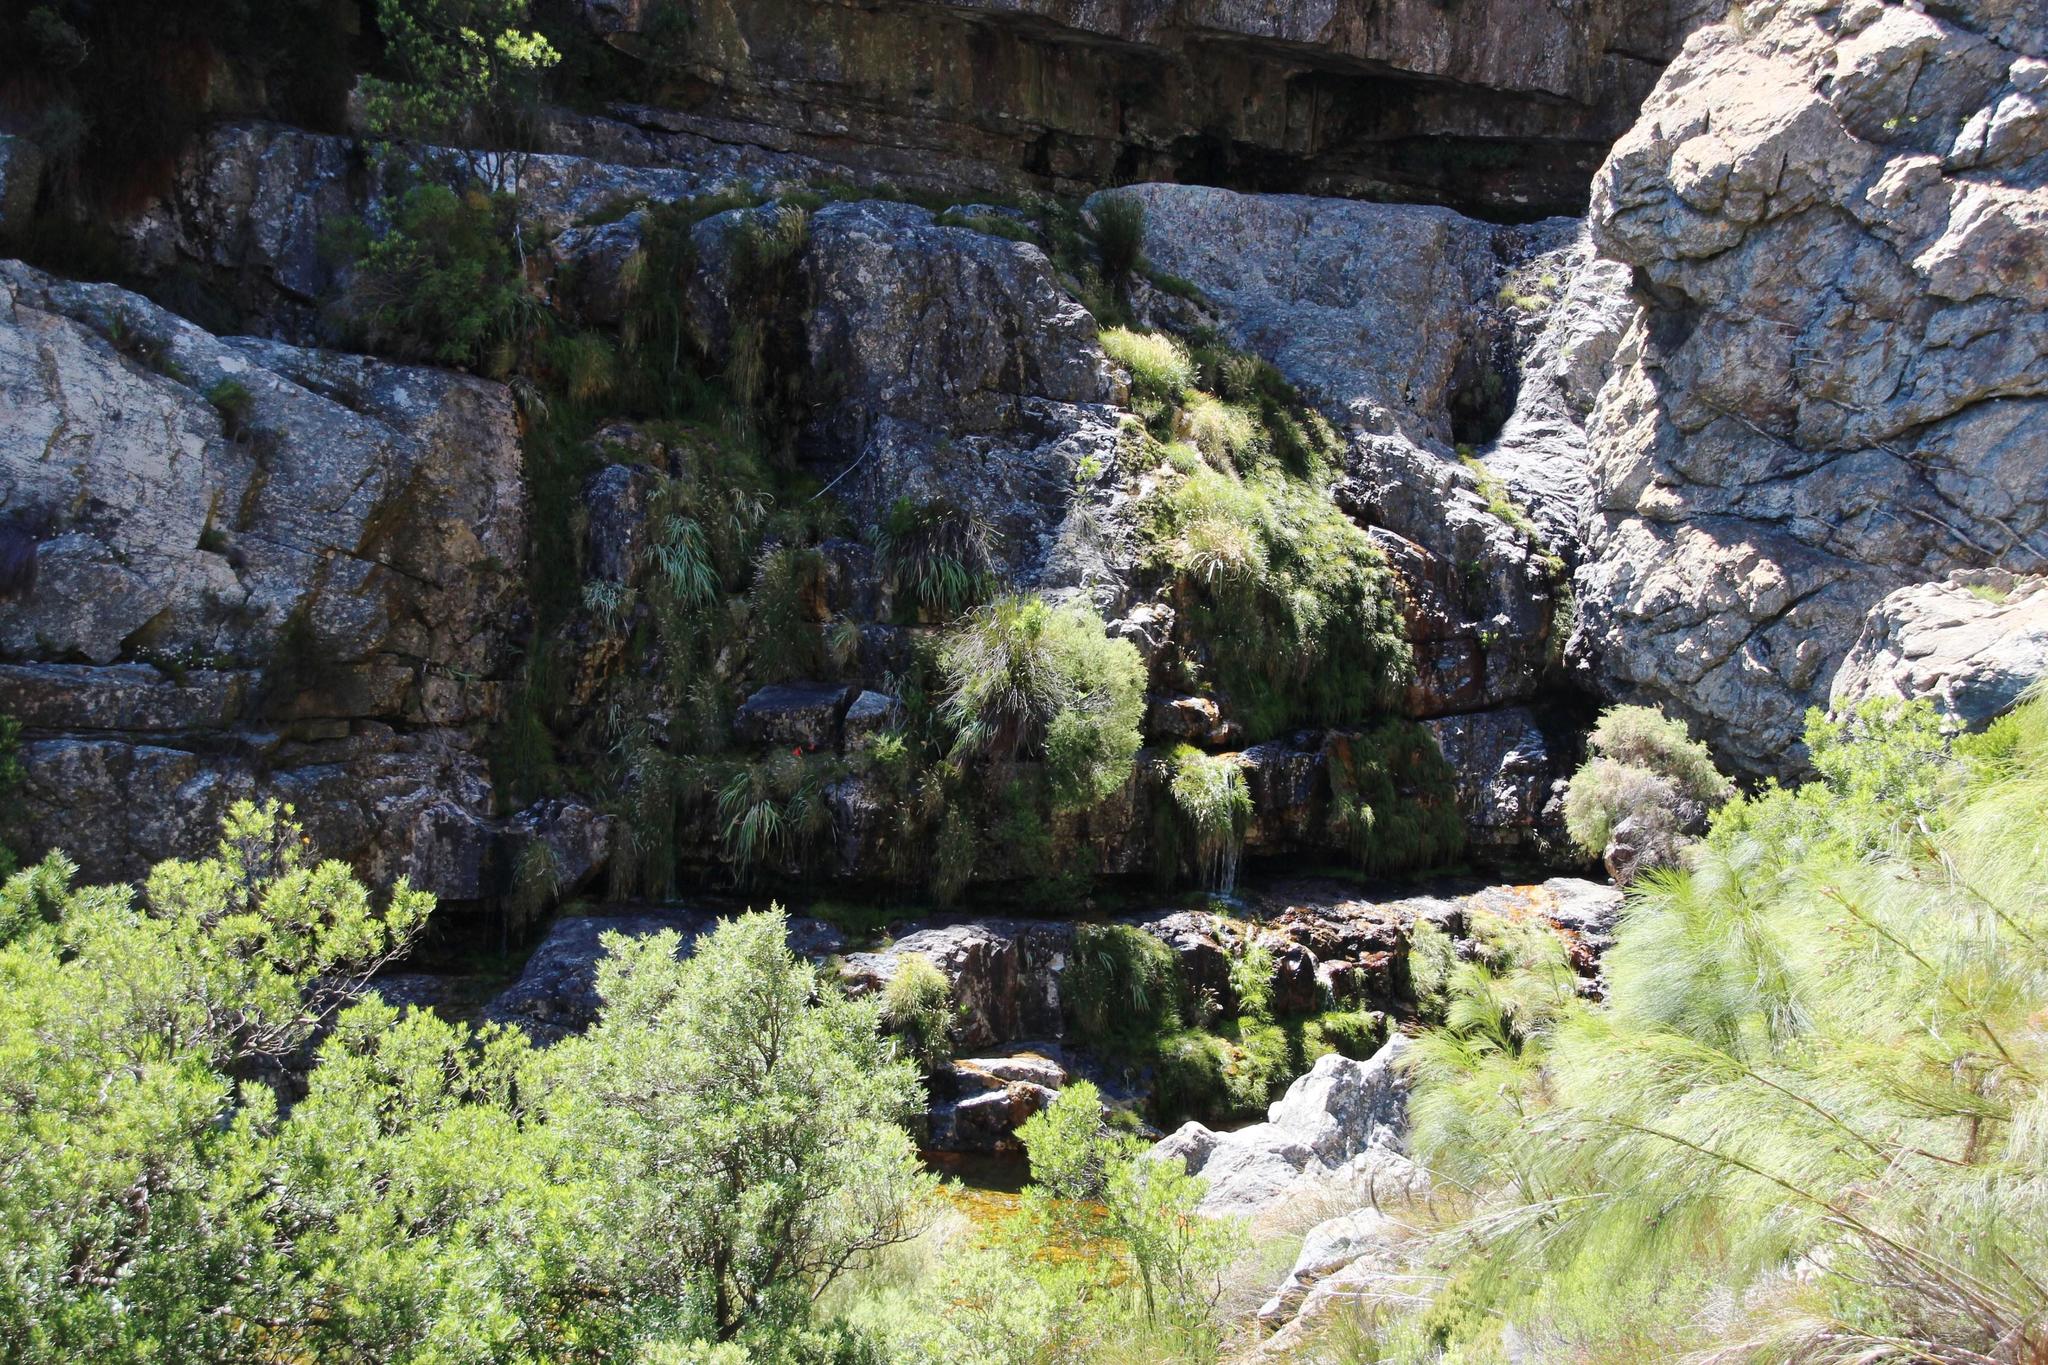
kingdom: Plantae
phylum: Tracheophyta
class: Liliopsida
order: Asparagales
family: Orchidaceae
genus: Disa
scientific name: Disa uniflora
